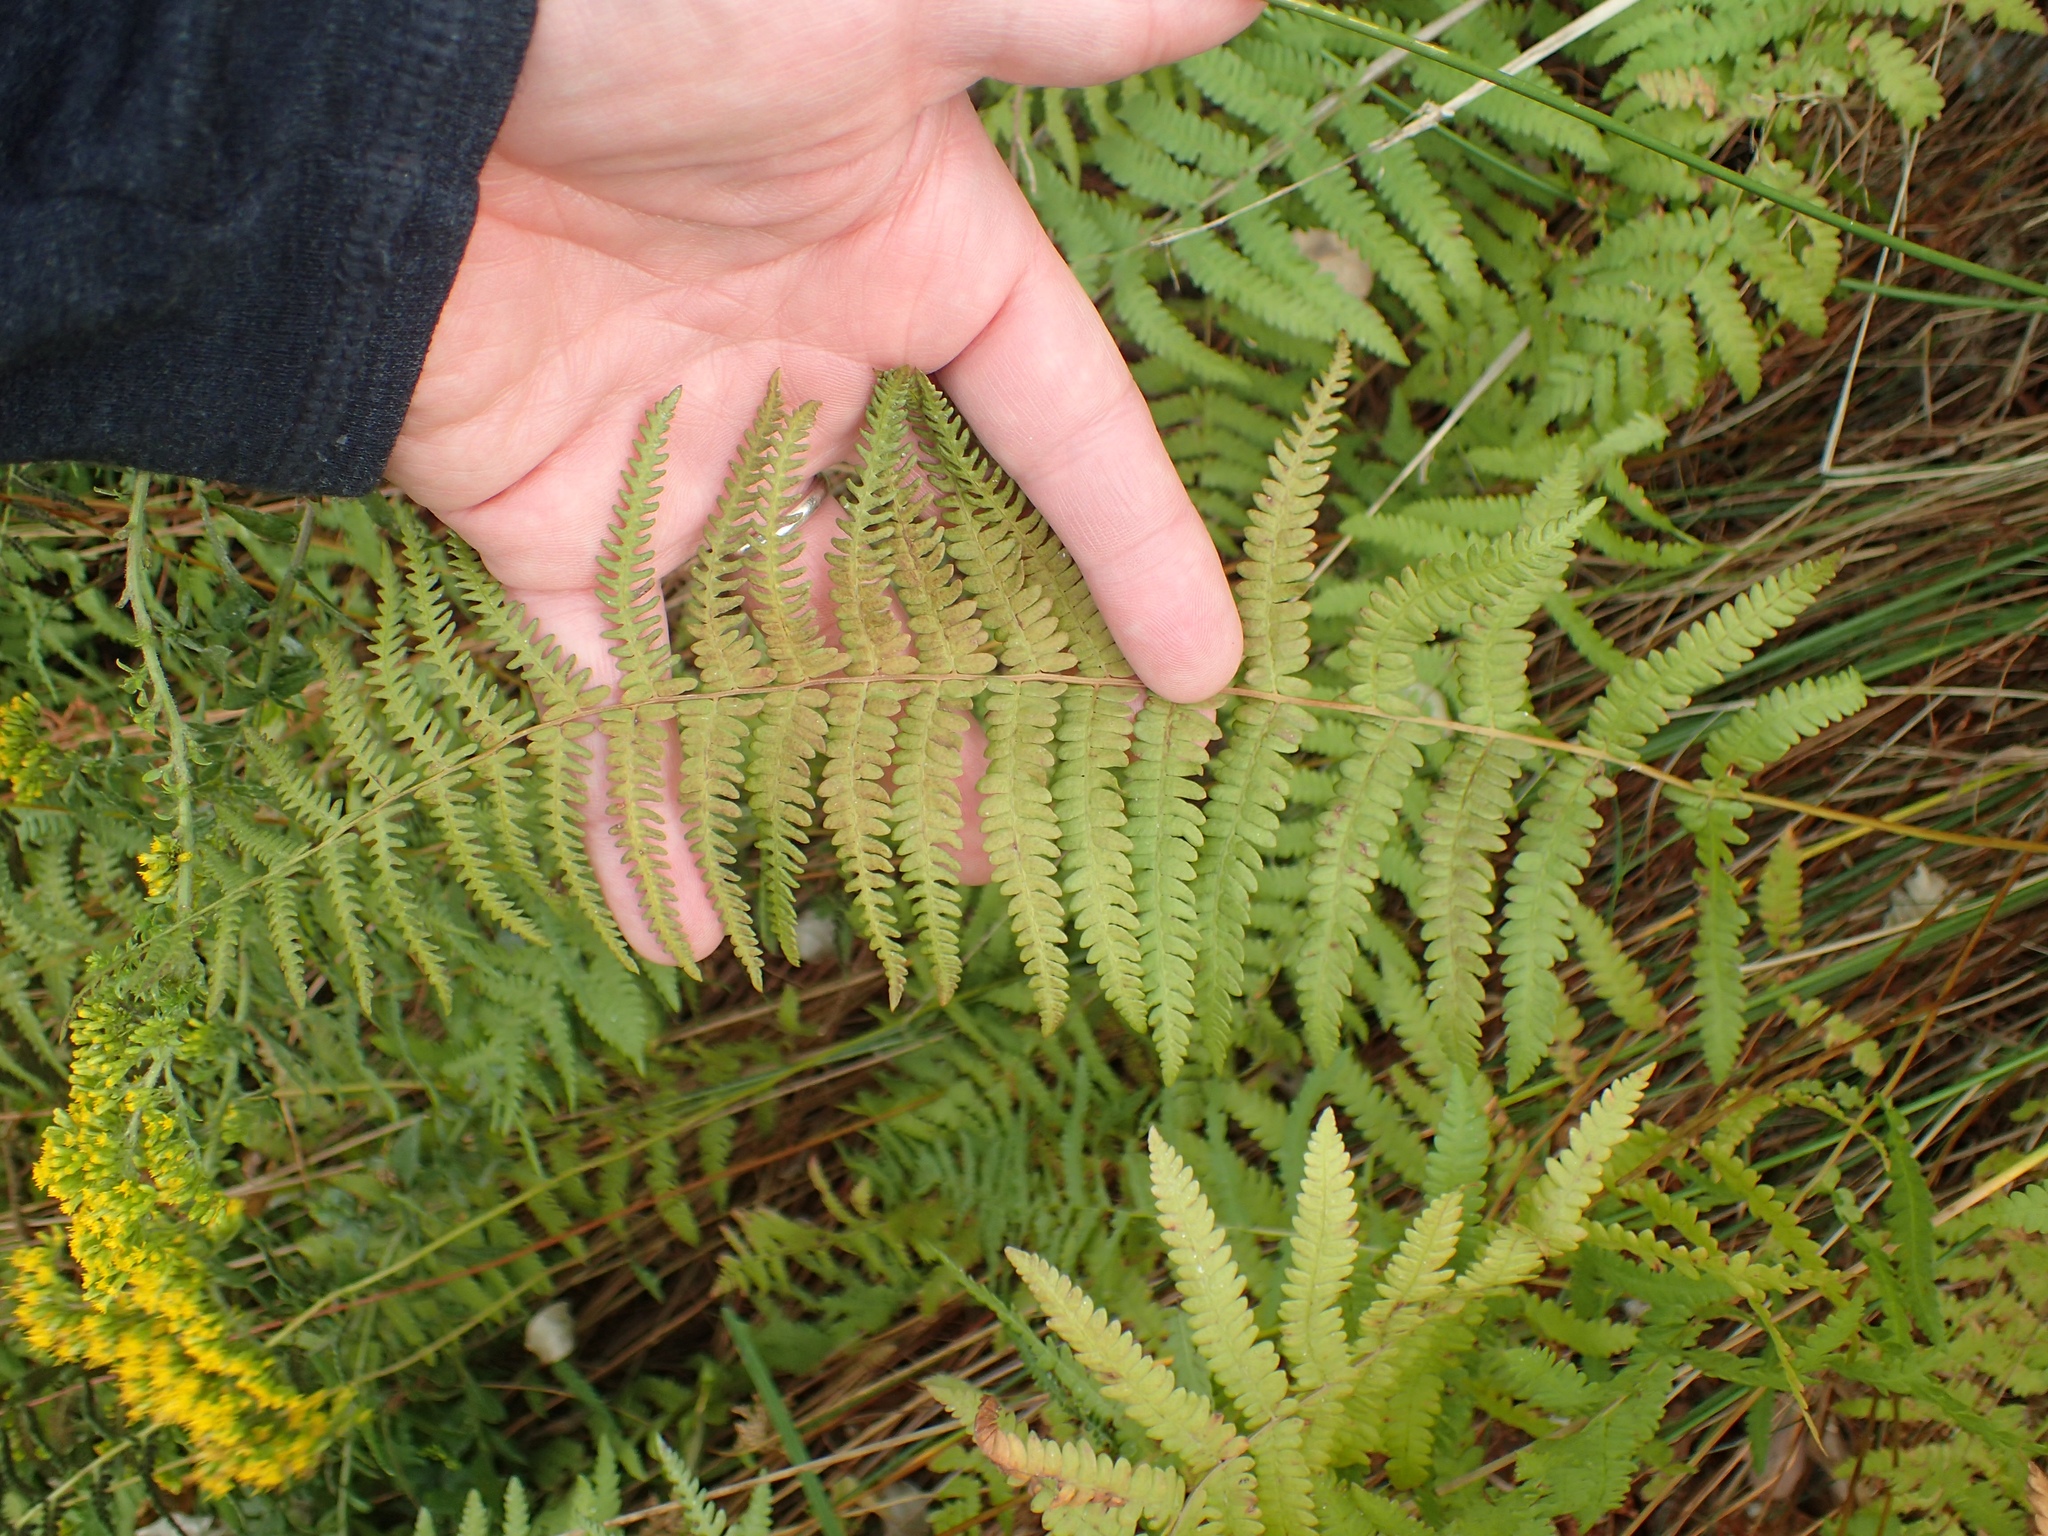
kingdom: Plantae
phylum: Tracheophyta
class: Polypodiopsida
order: Polypodiales
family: Thelypteridaceae
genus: Thelypteris
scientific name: Thelypteris palustris
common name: Marsh fern
